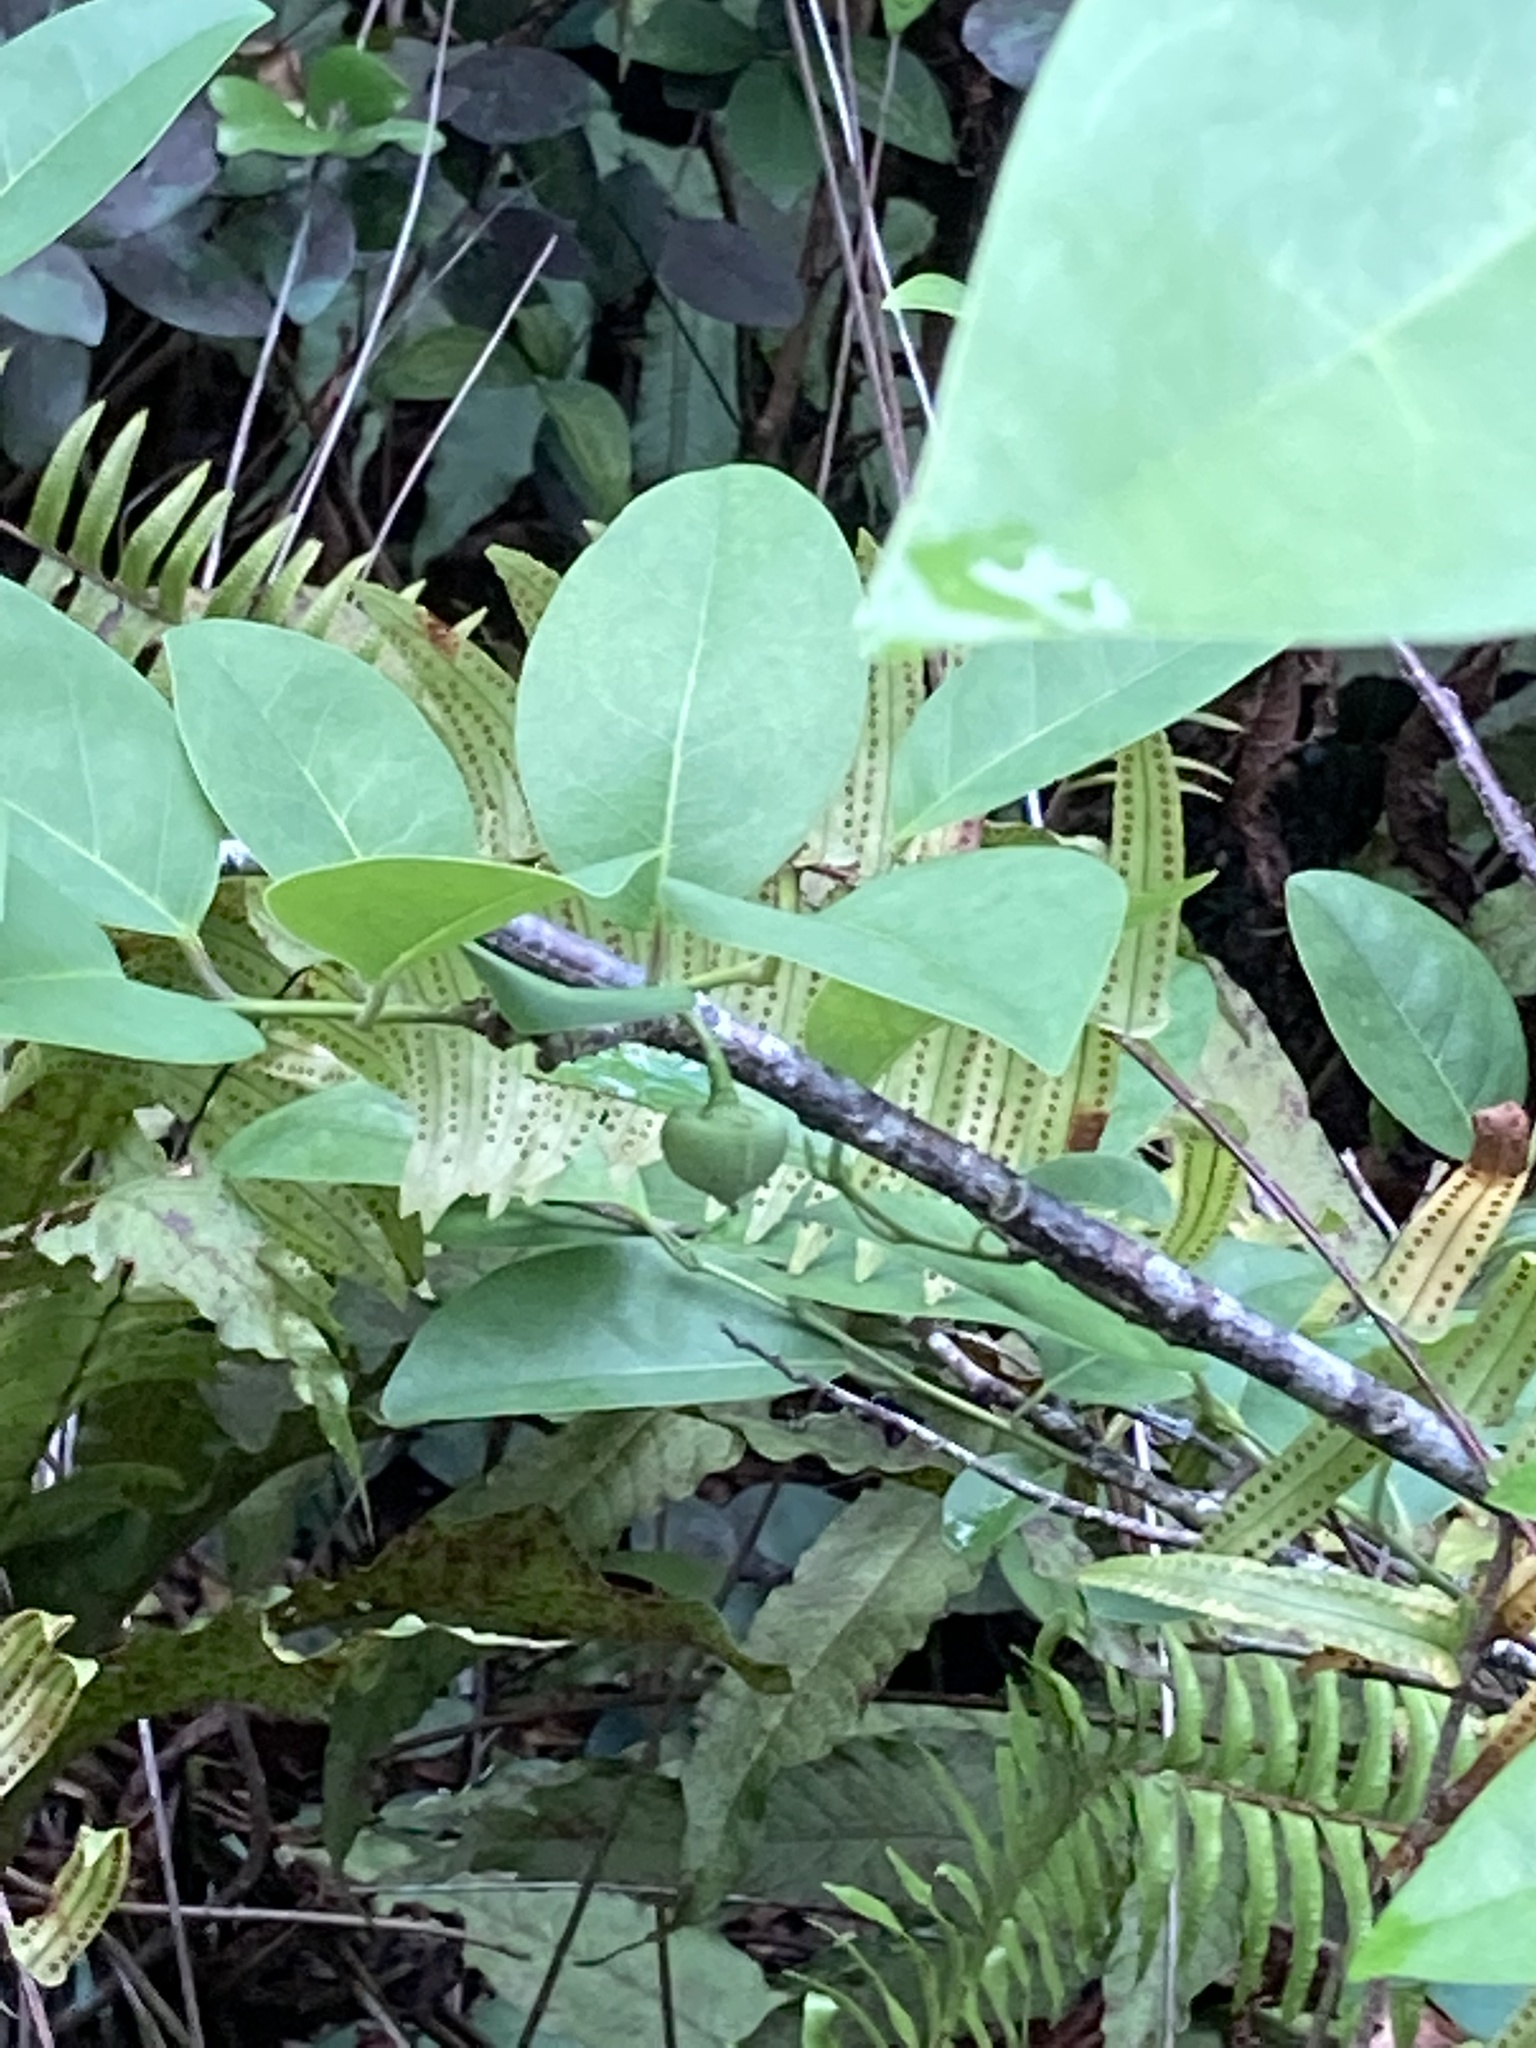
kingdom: Plantae
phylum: Tracheophyta
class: Magnoliopsida
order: Magnoliales
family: Annonaceae
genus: Annona
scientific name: Annona glabra
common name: Monkey apple
